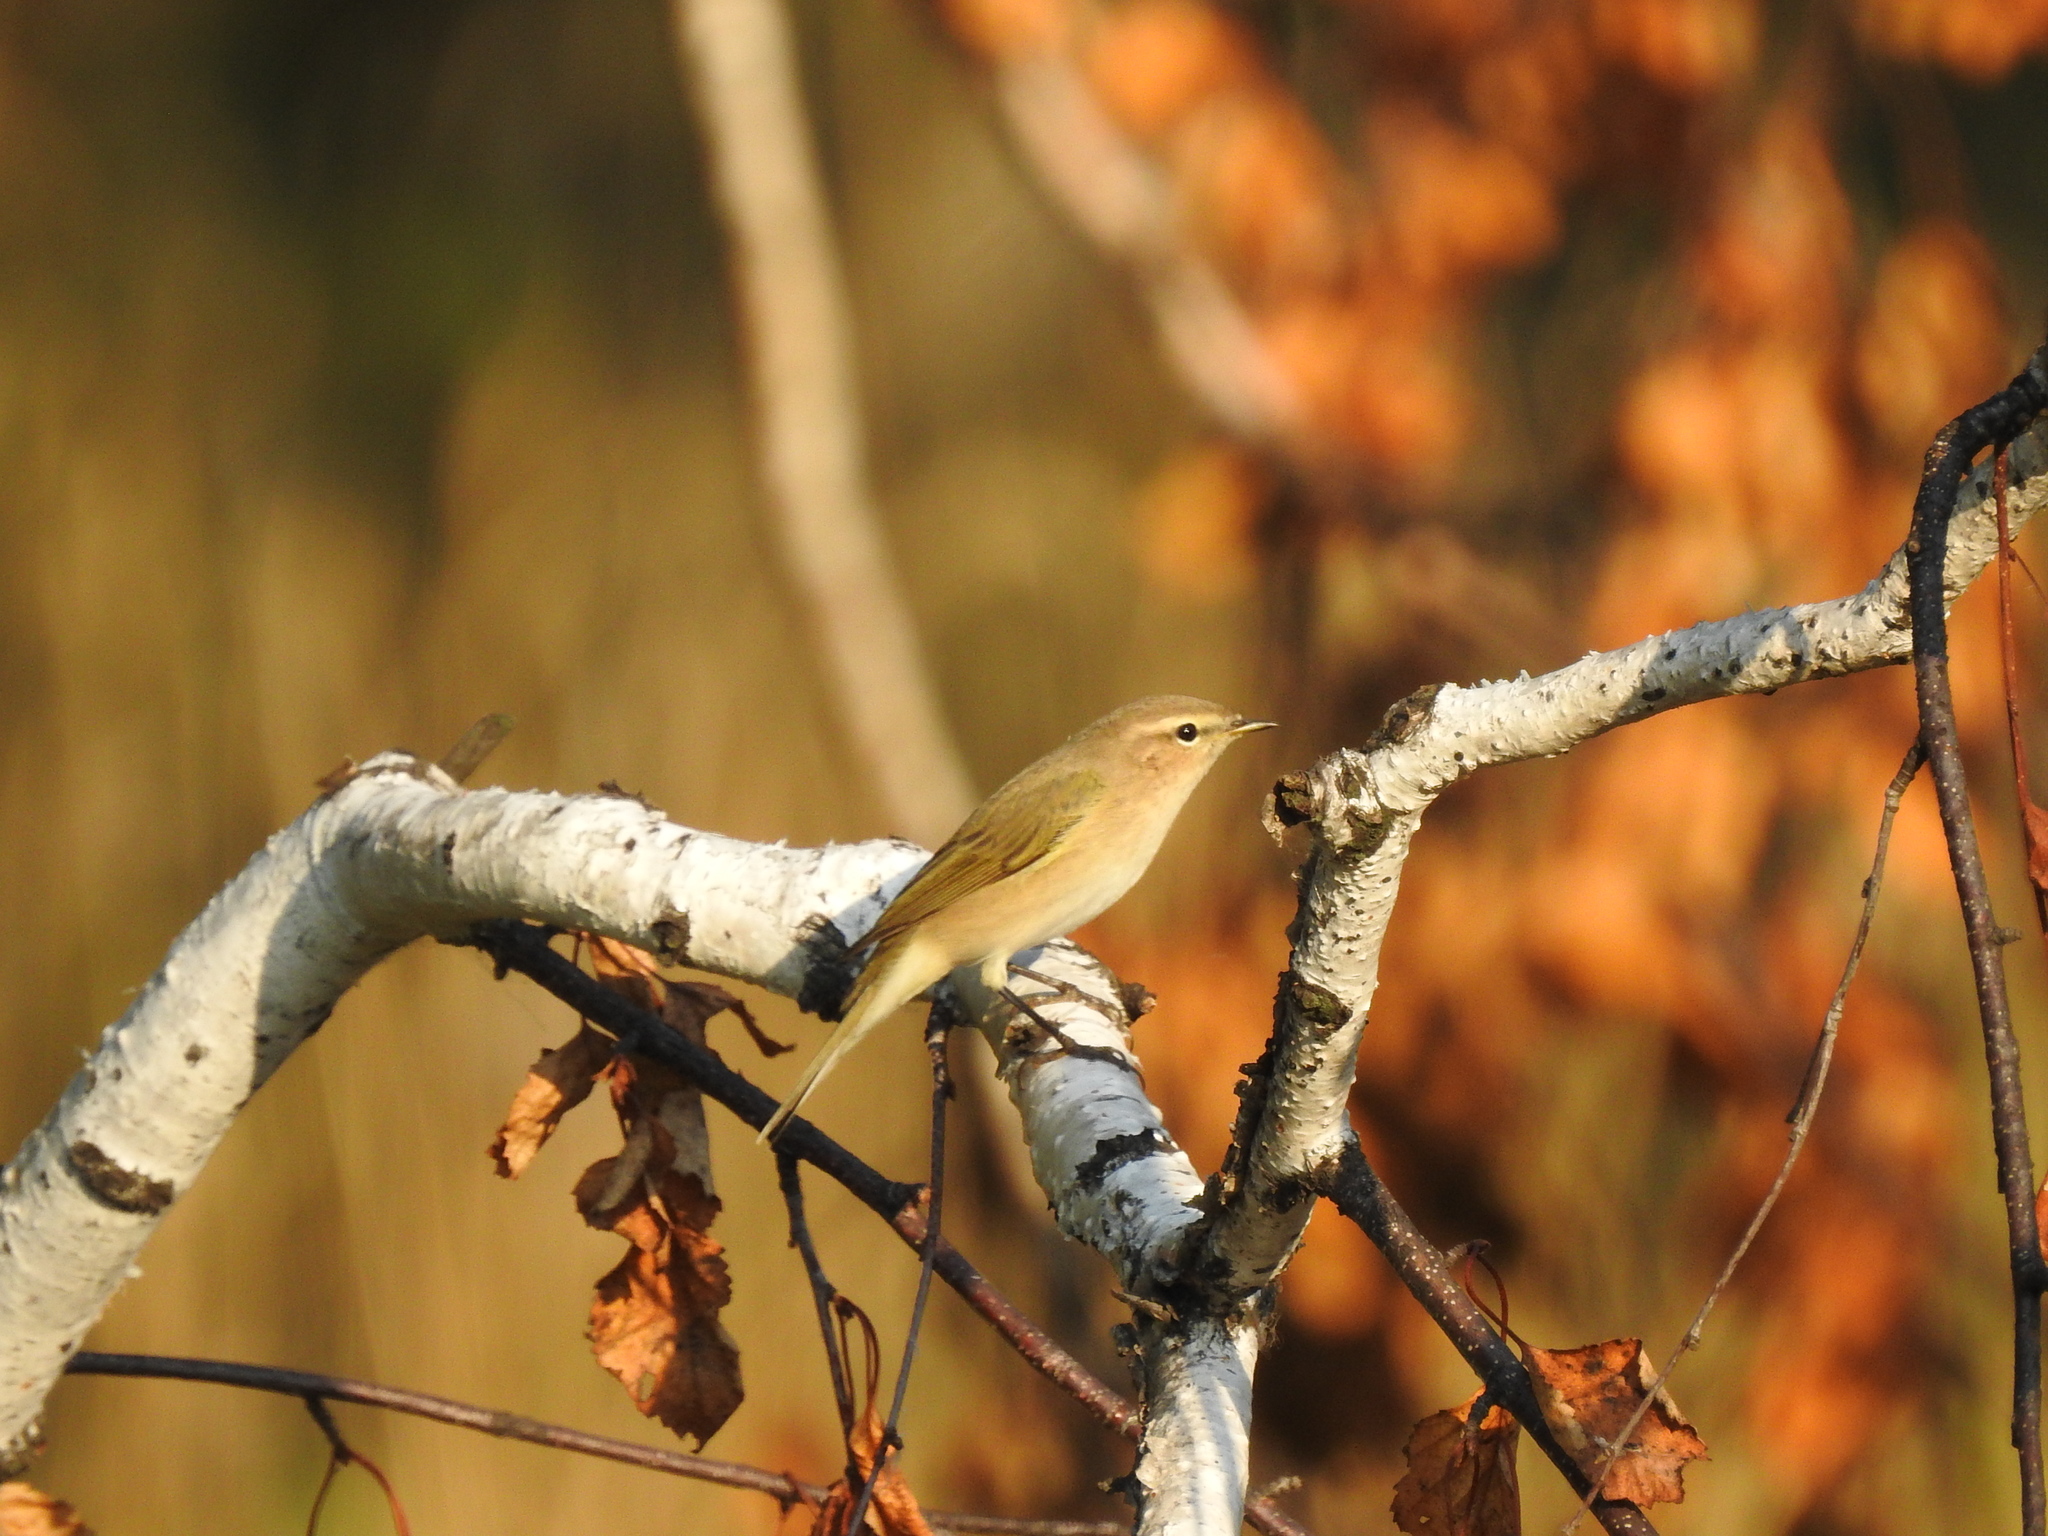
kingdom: Animalia
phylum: Chordata
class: Aves
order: Passeriformes
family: Phylloscopidae
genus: Phylloscopus
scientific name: Phylloscopus collybita
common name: Common chiffchaff
